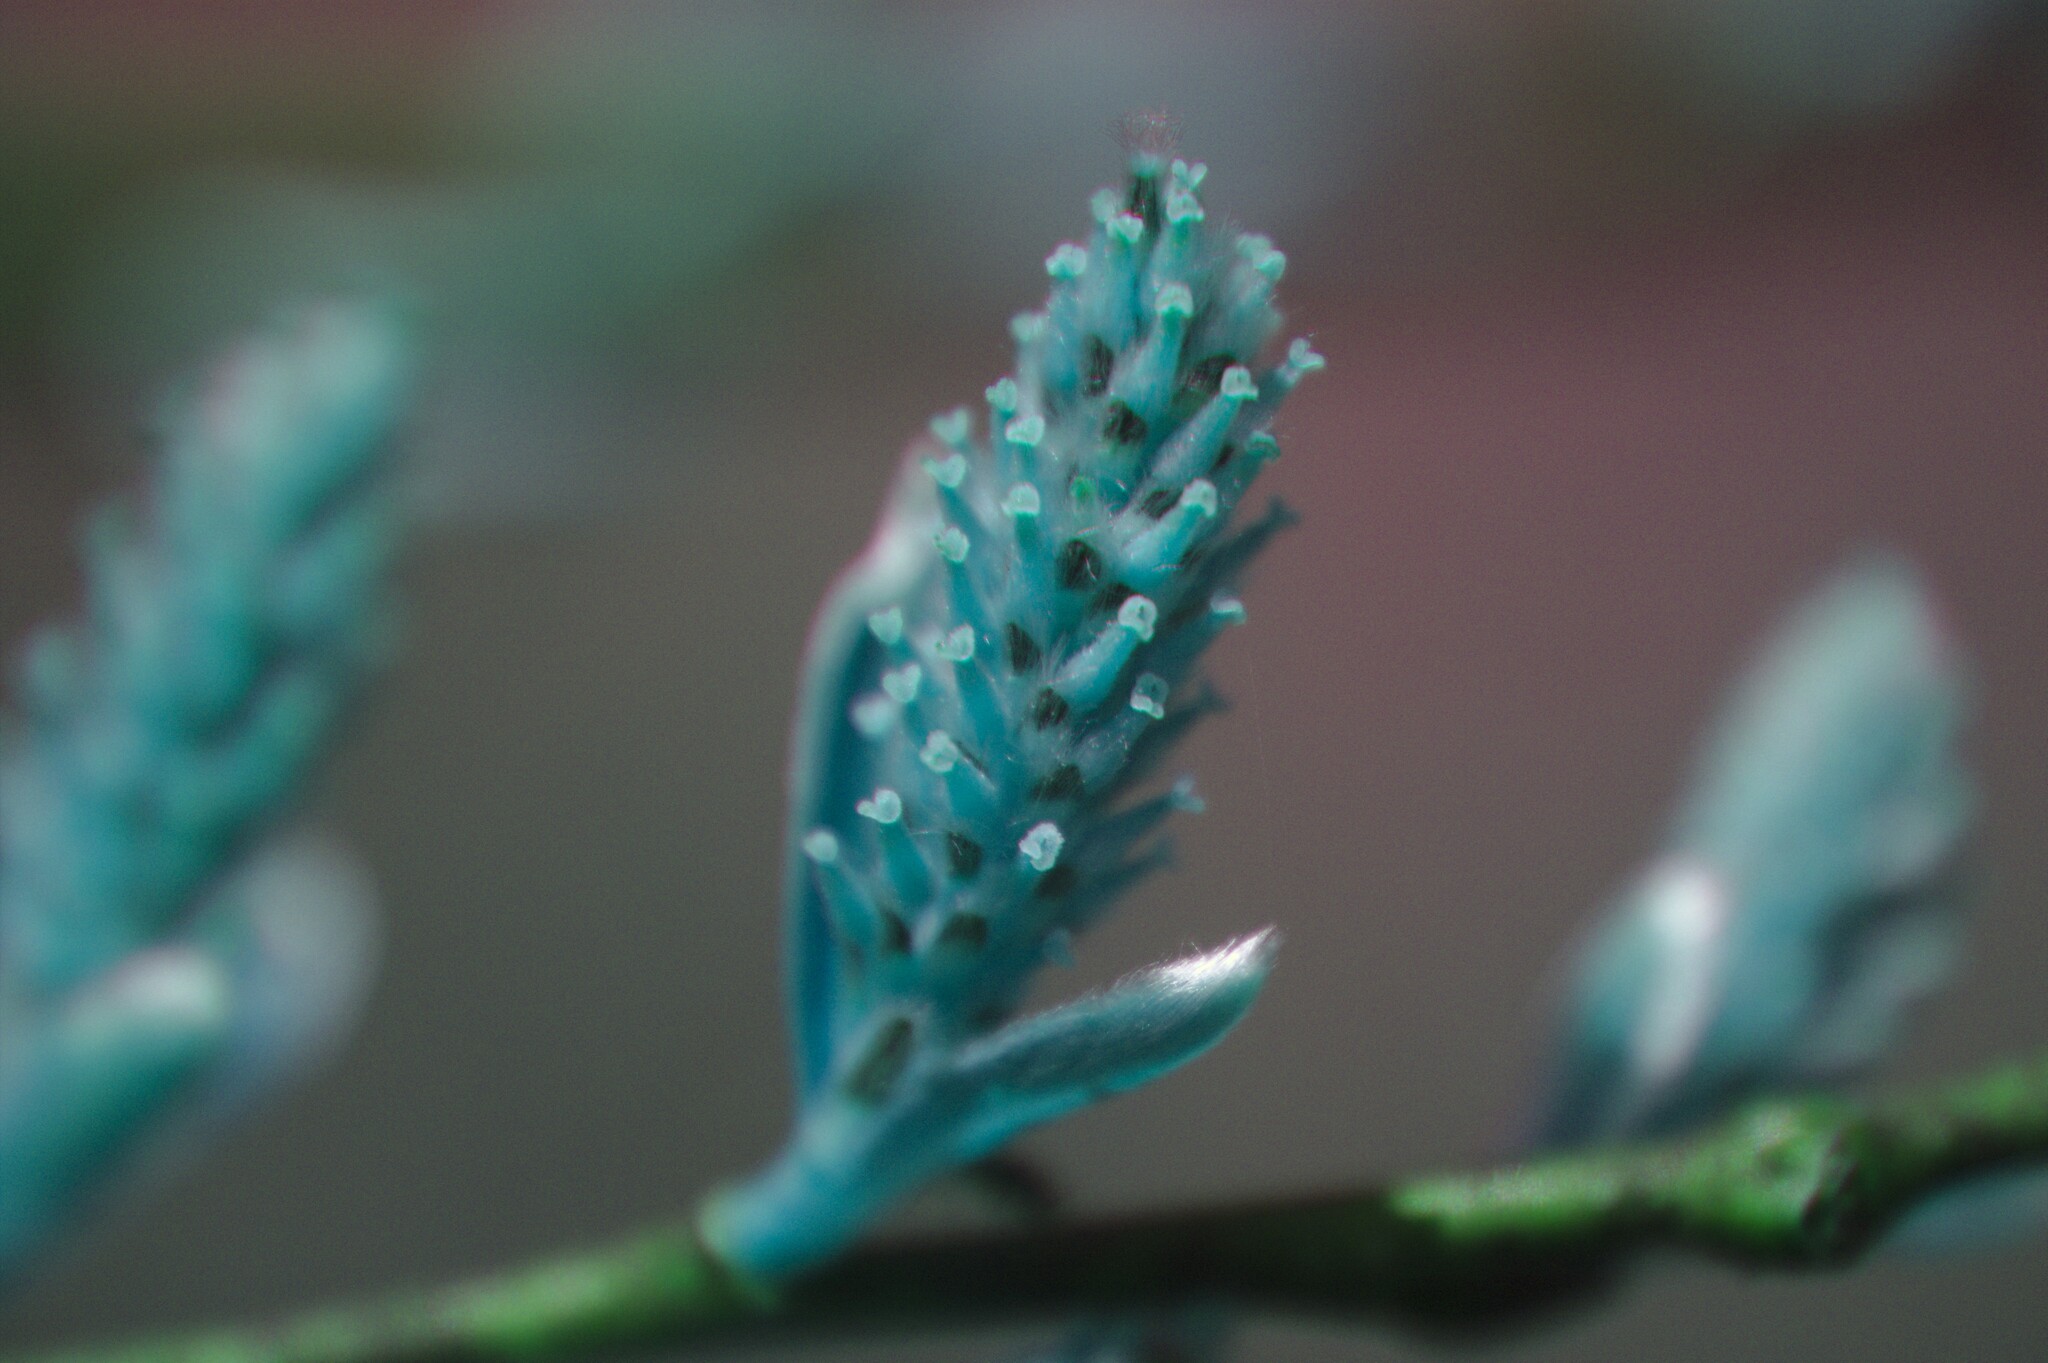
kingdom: Plantae
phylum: Tracheophyta
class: Magnoliopsida
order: Malpighiales
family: Salicaceae
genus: Salix
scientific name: Salix petiolaris
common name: Slender willow
